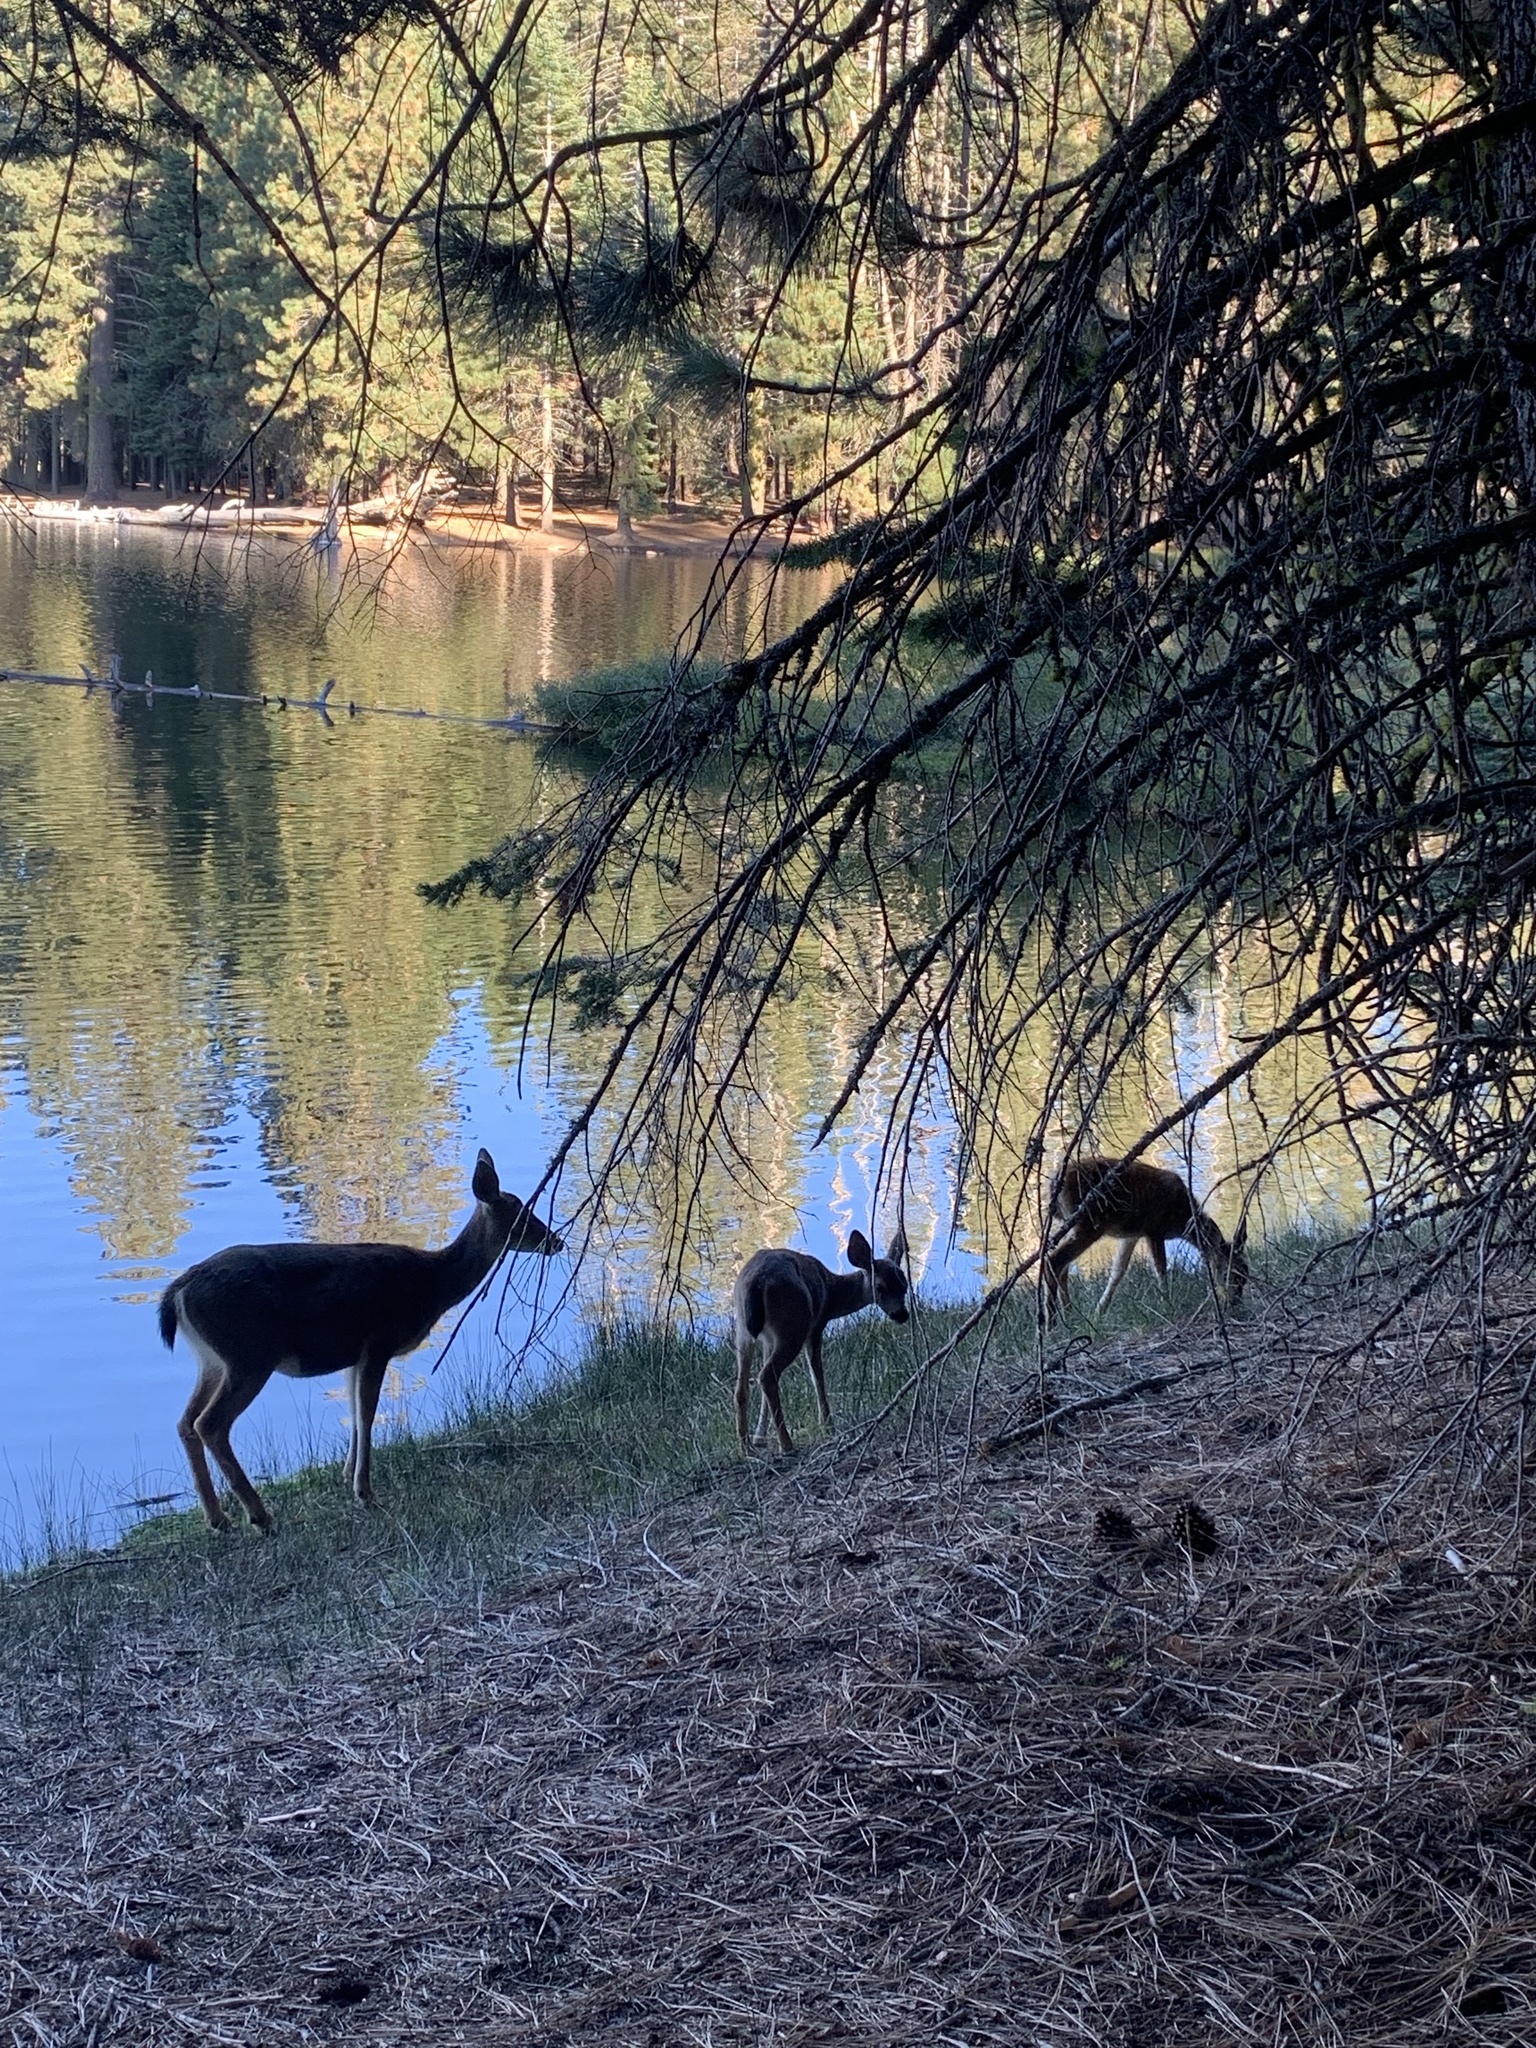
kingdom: Animalia
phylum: Chordata
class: Mammalia
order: Artiodactyla
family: Cervidae
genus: Odocoileus
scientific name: Odocoileus hemionus
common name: Mule deer
